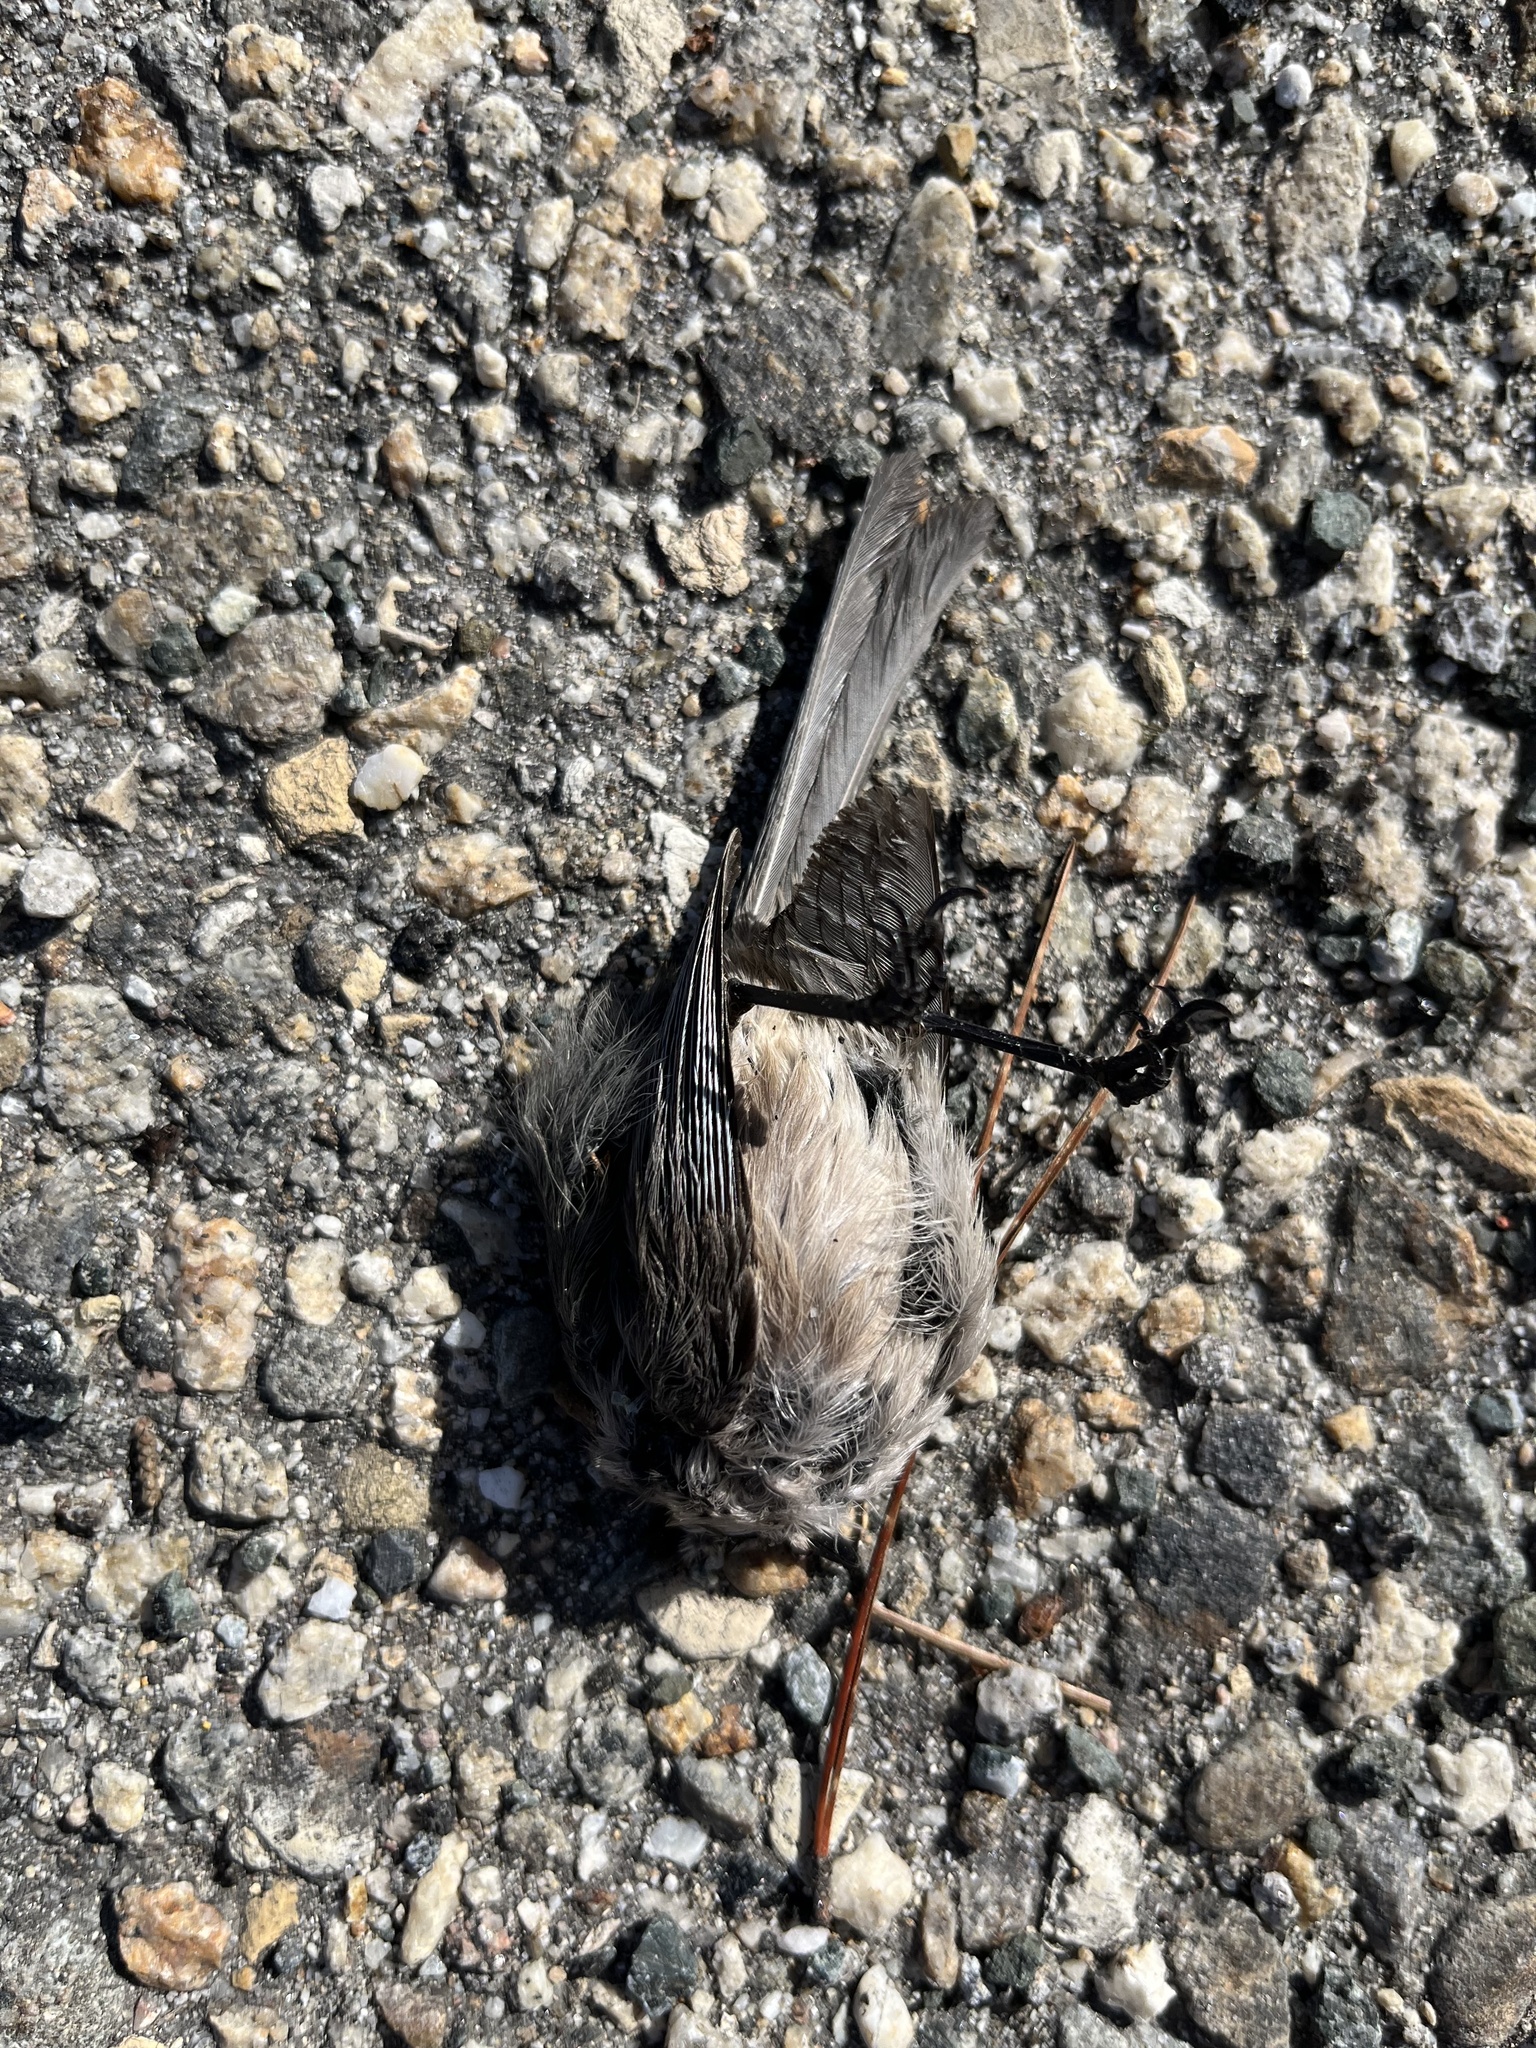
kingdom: Animalia
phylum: Chordata
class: Aves
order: Passeriformes
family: Aegithalidae
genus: Psaltriparus
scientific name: Psaltriparus minimus
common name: American bushtit
